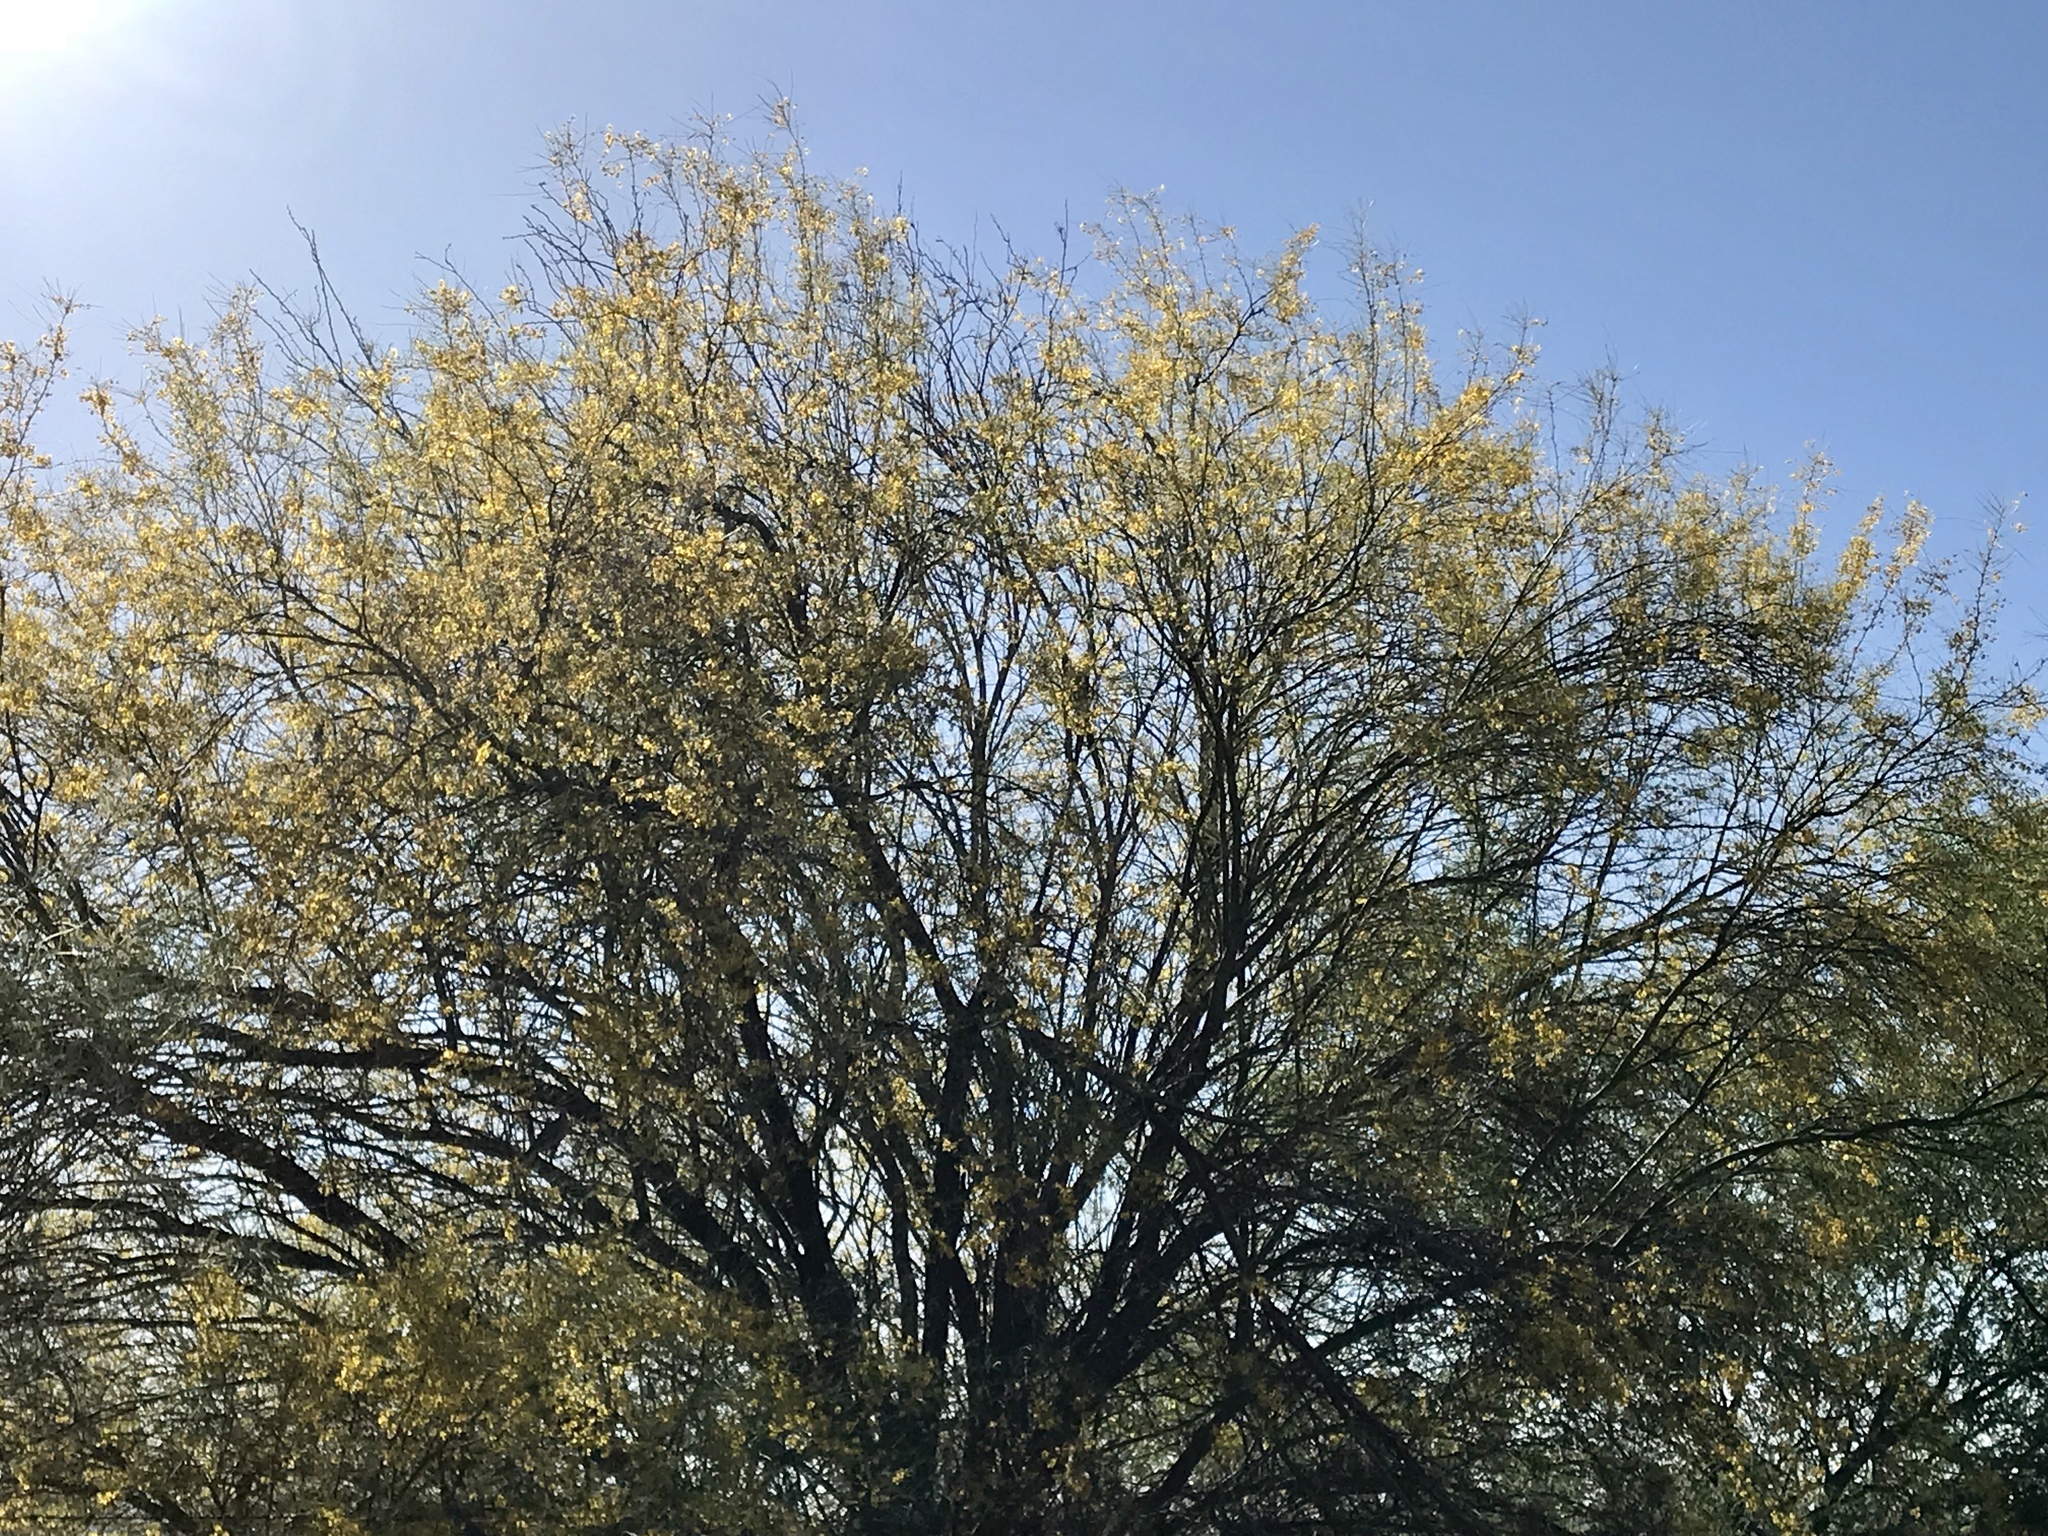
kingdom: Plantae
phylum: Tracheophyta
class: Magnoliopsida
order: Fabales
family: Fabaceae
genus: Parkinsonia
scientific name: Parkinsonia aculeata
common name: Jerusalem thorn
